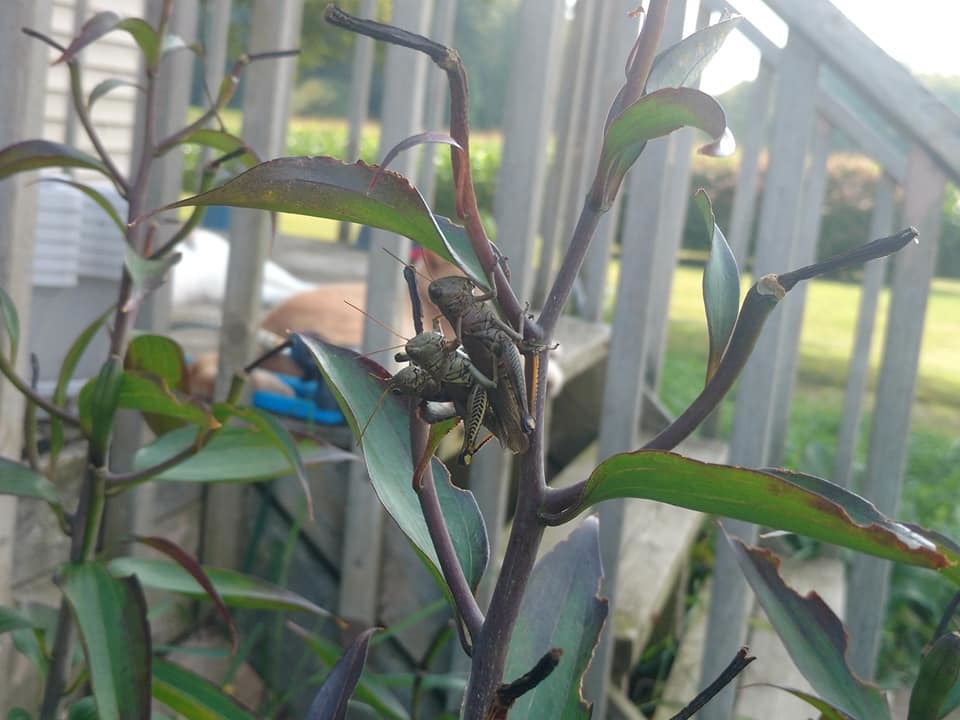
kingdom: Animalia
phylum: Arthropoda
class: Insecta
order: Orthoptera
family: Acrididae
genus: Melanoplus
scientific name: Melanoplus differentialis
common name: Differential grasshopper
